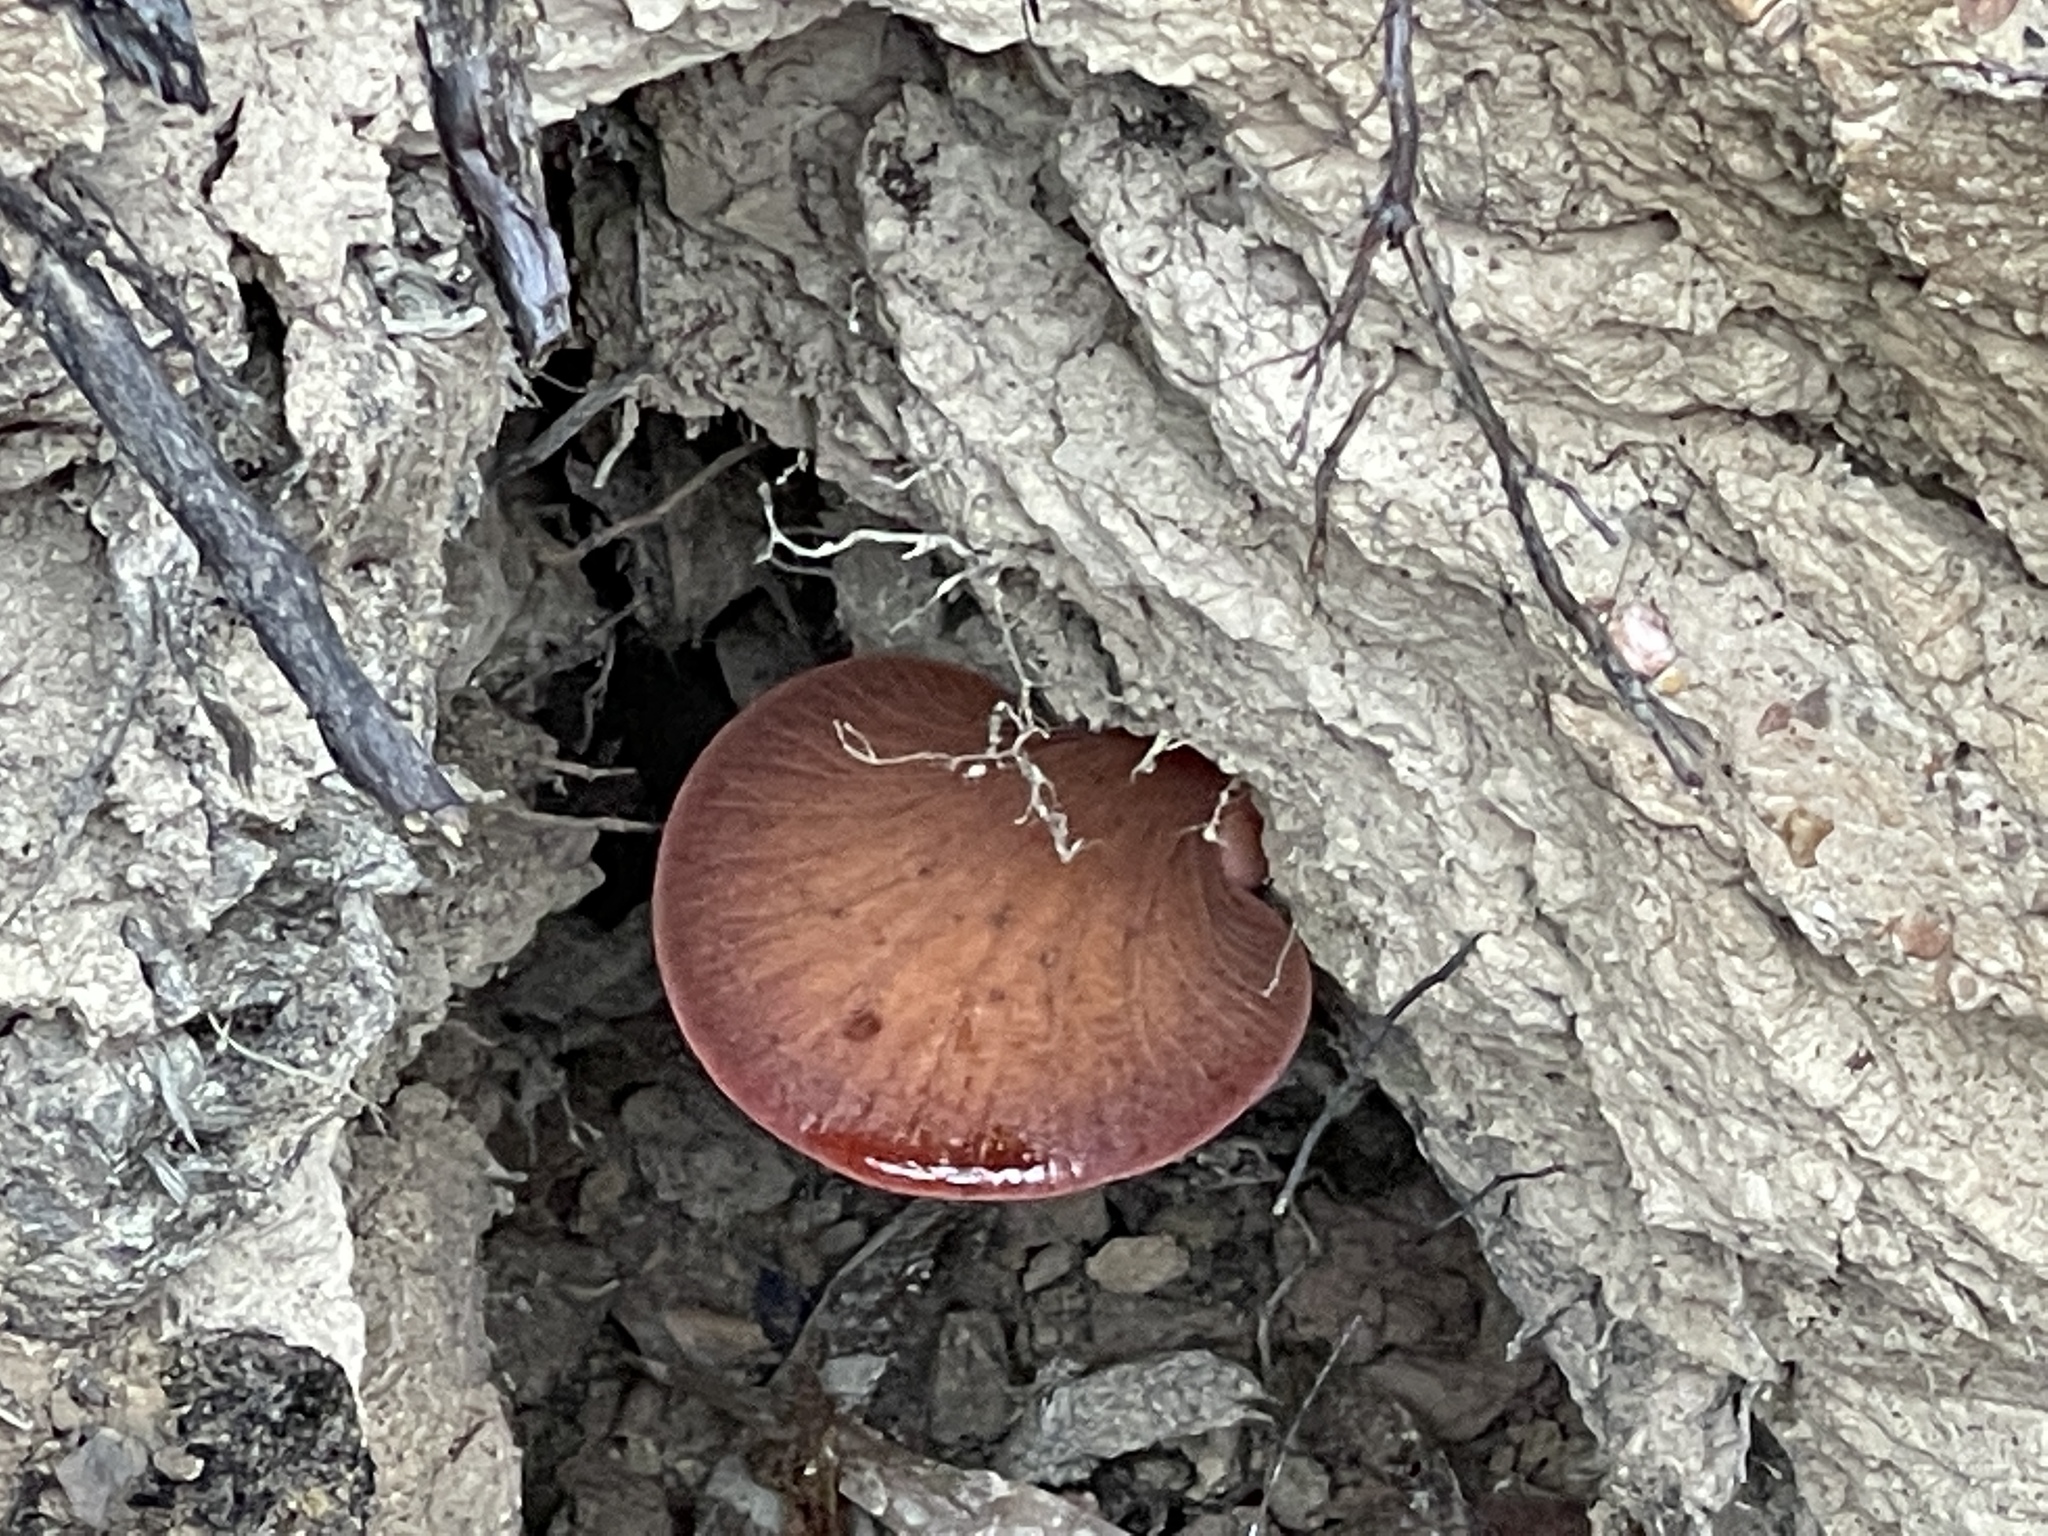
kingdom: Fungi
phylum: Basidiomycota
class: Agaricomycetes
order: Agaricales
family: Fistulinaceae
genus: Fistulina
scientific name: Fistulina spiculifera
